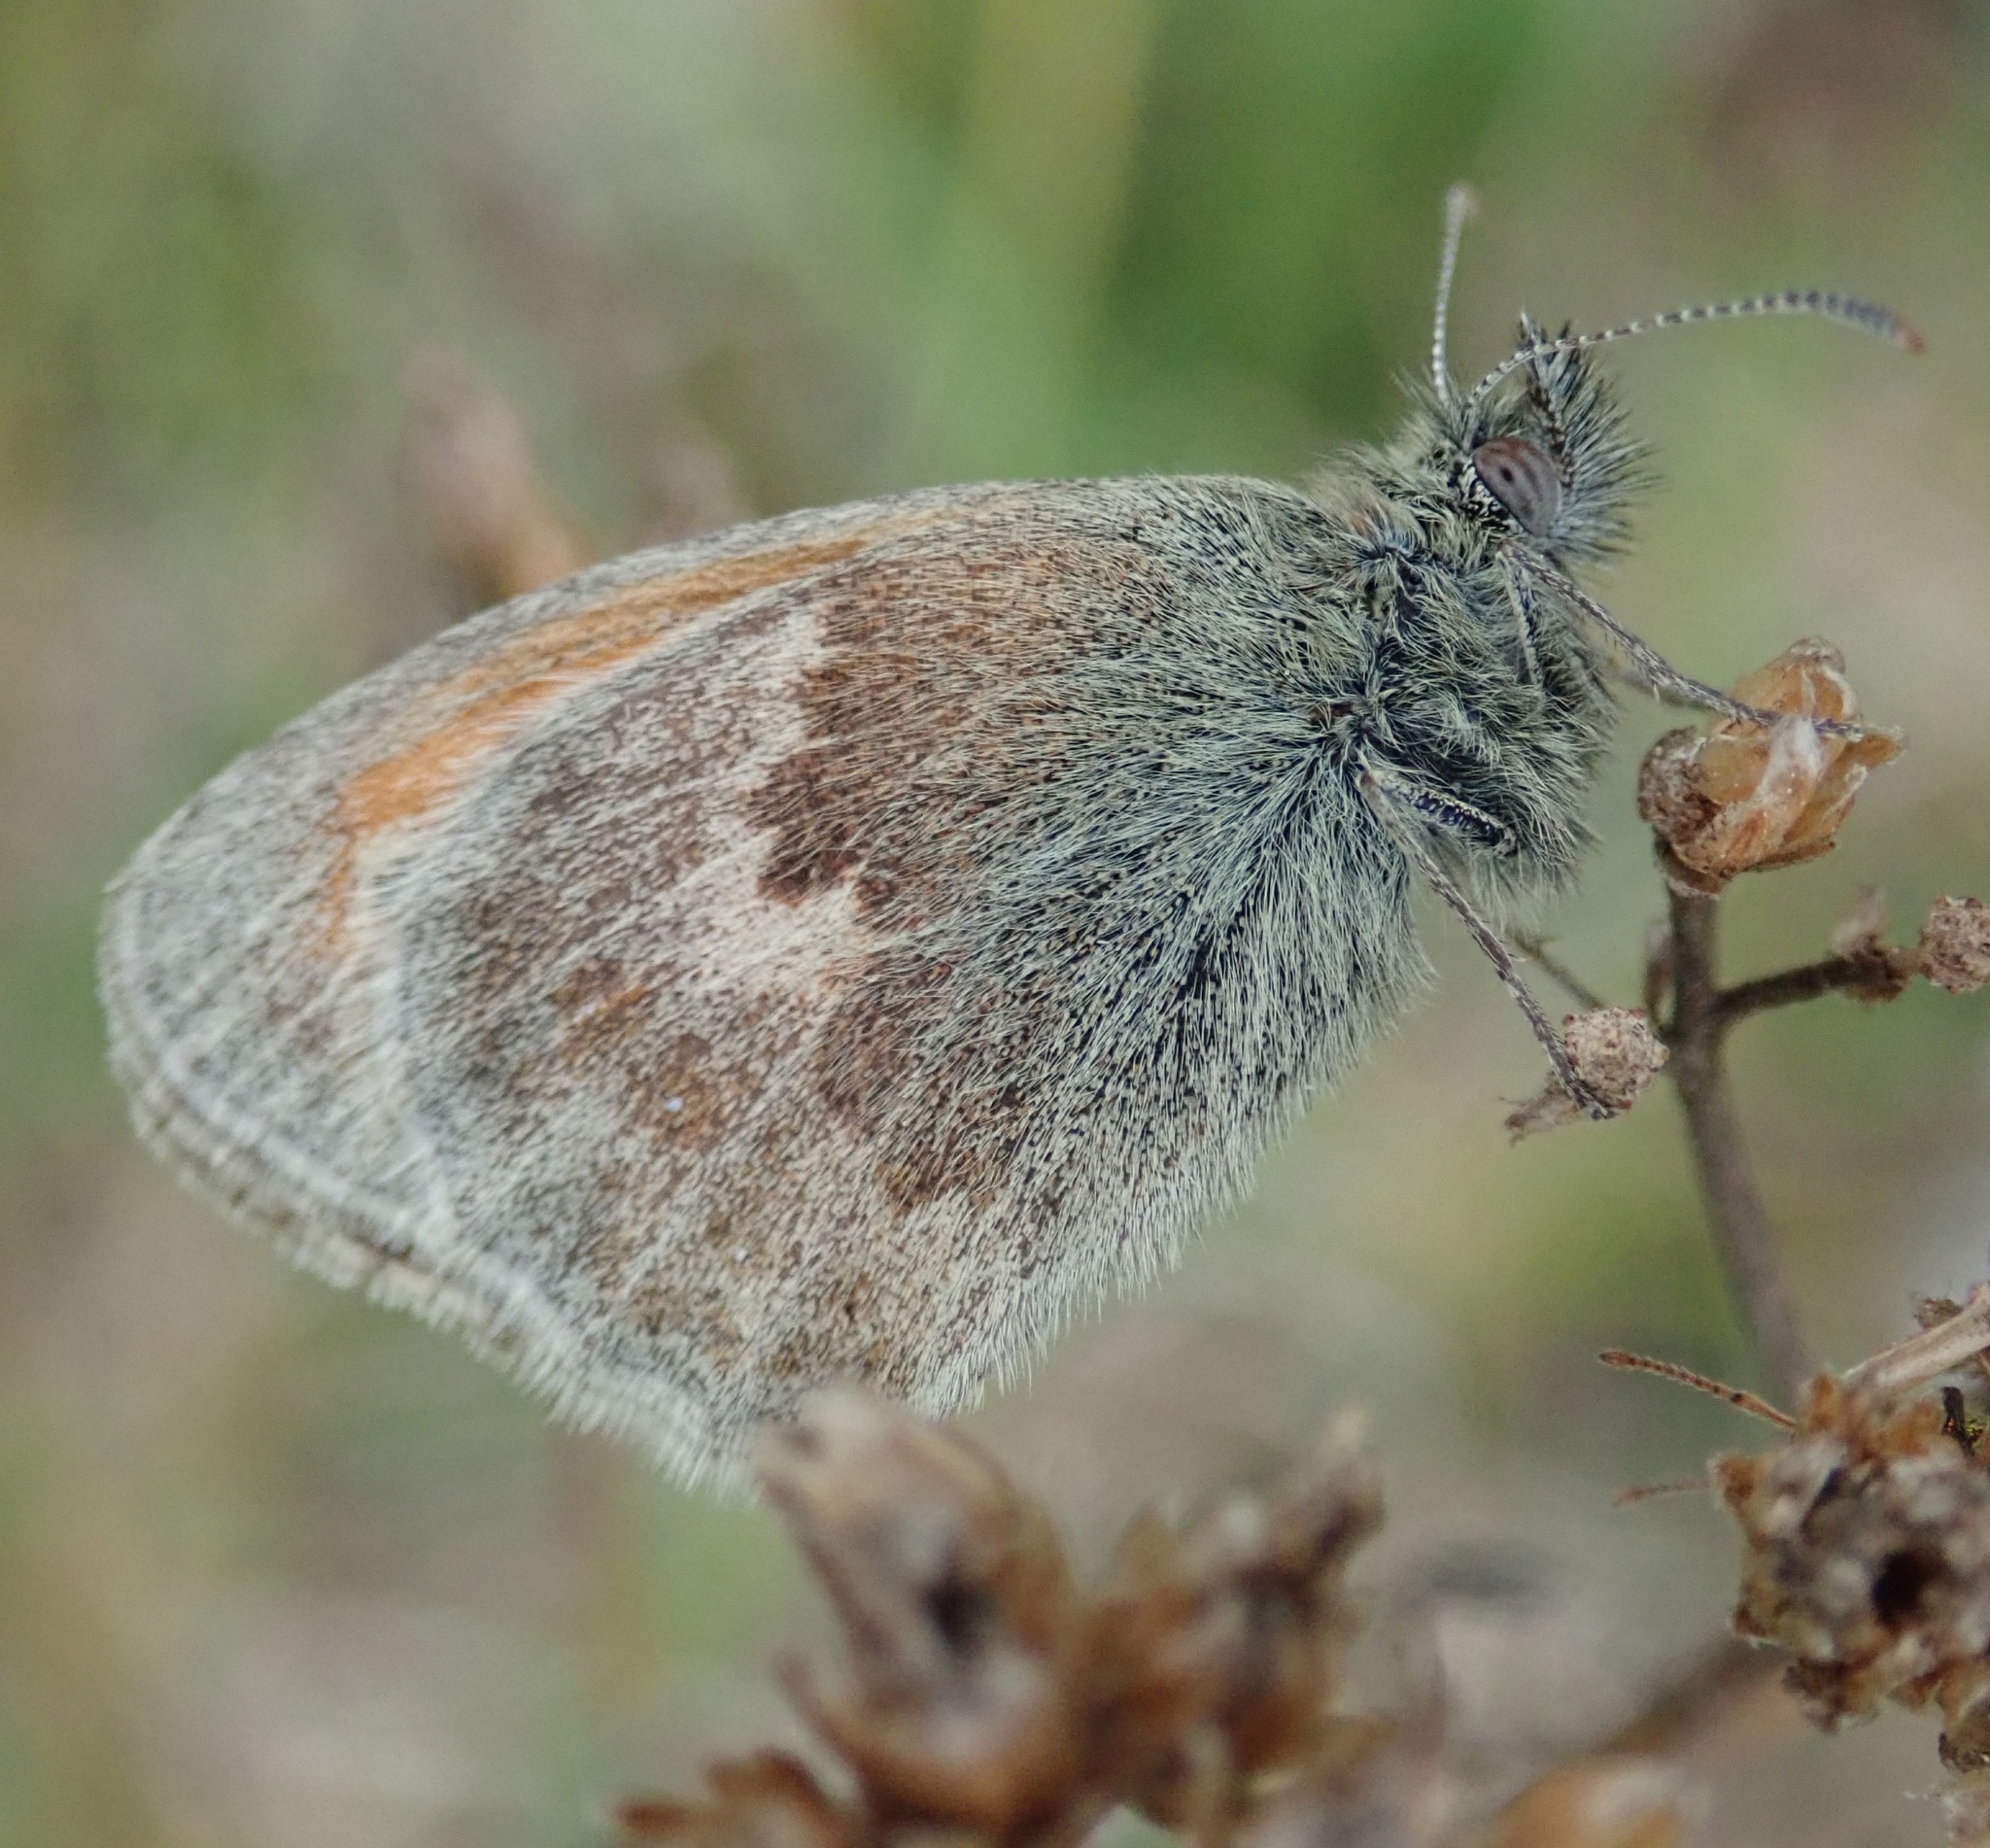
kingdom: Animalia
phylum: Arthropoda
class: Insecta
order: Lepidoptera
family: Nymphalidae
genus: Coenonympha
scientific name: Coenonympha pamphilus
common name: Small heath
